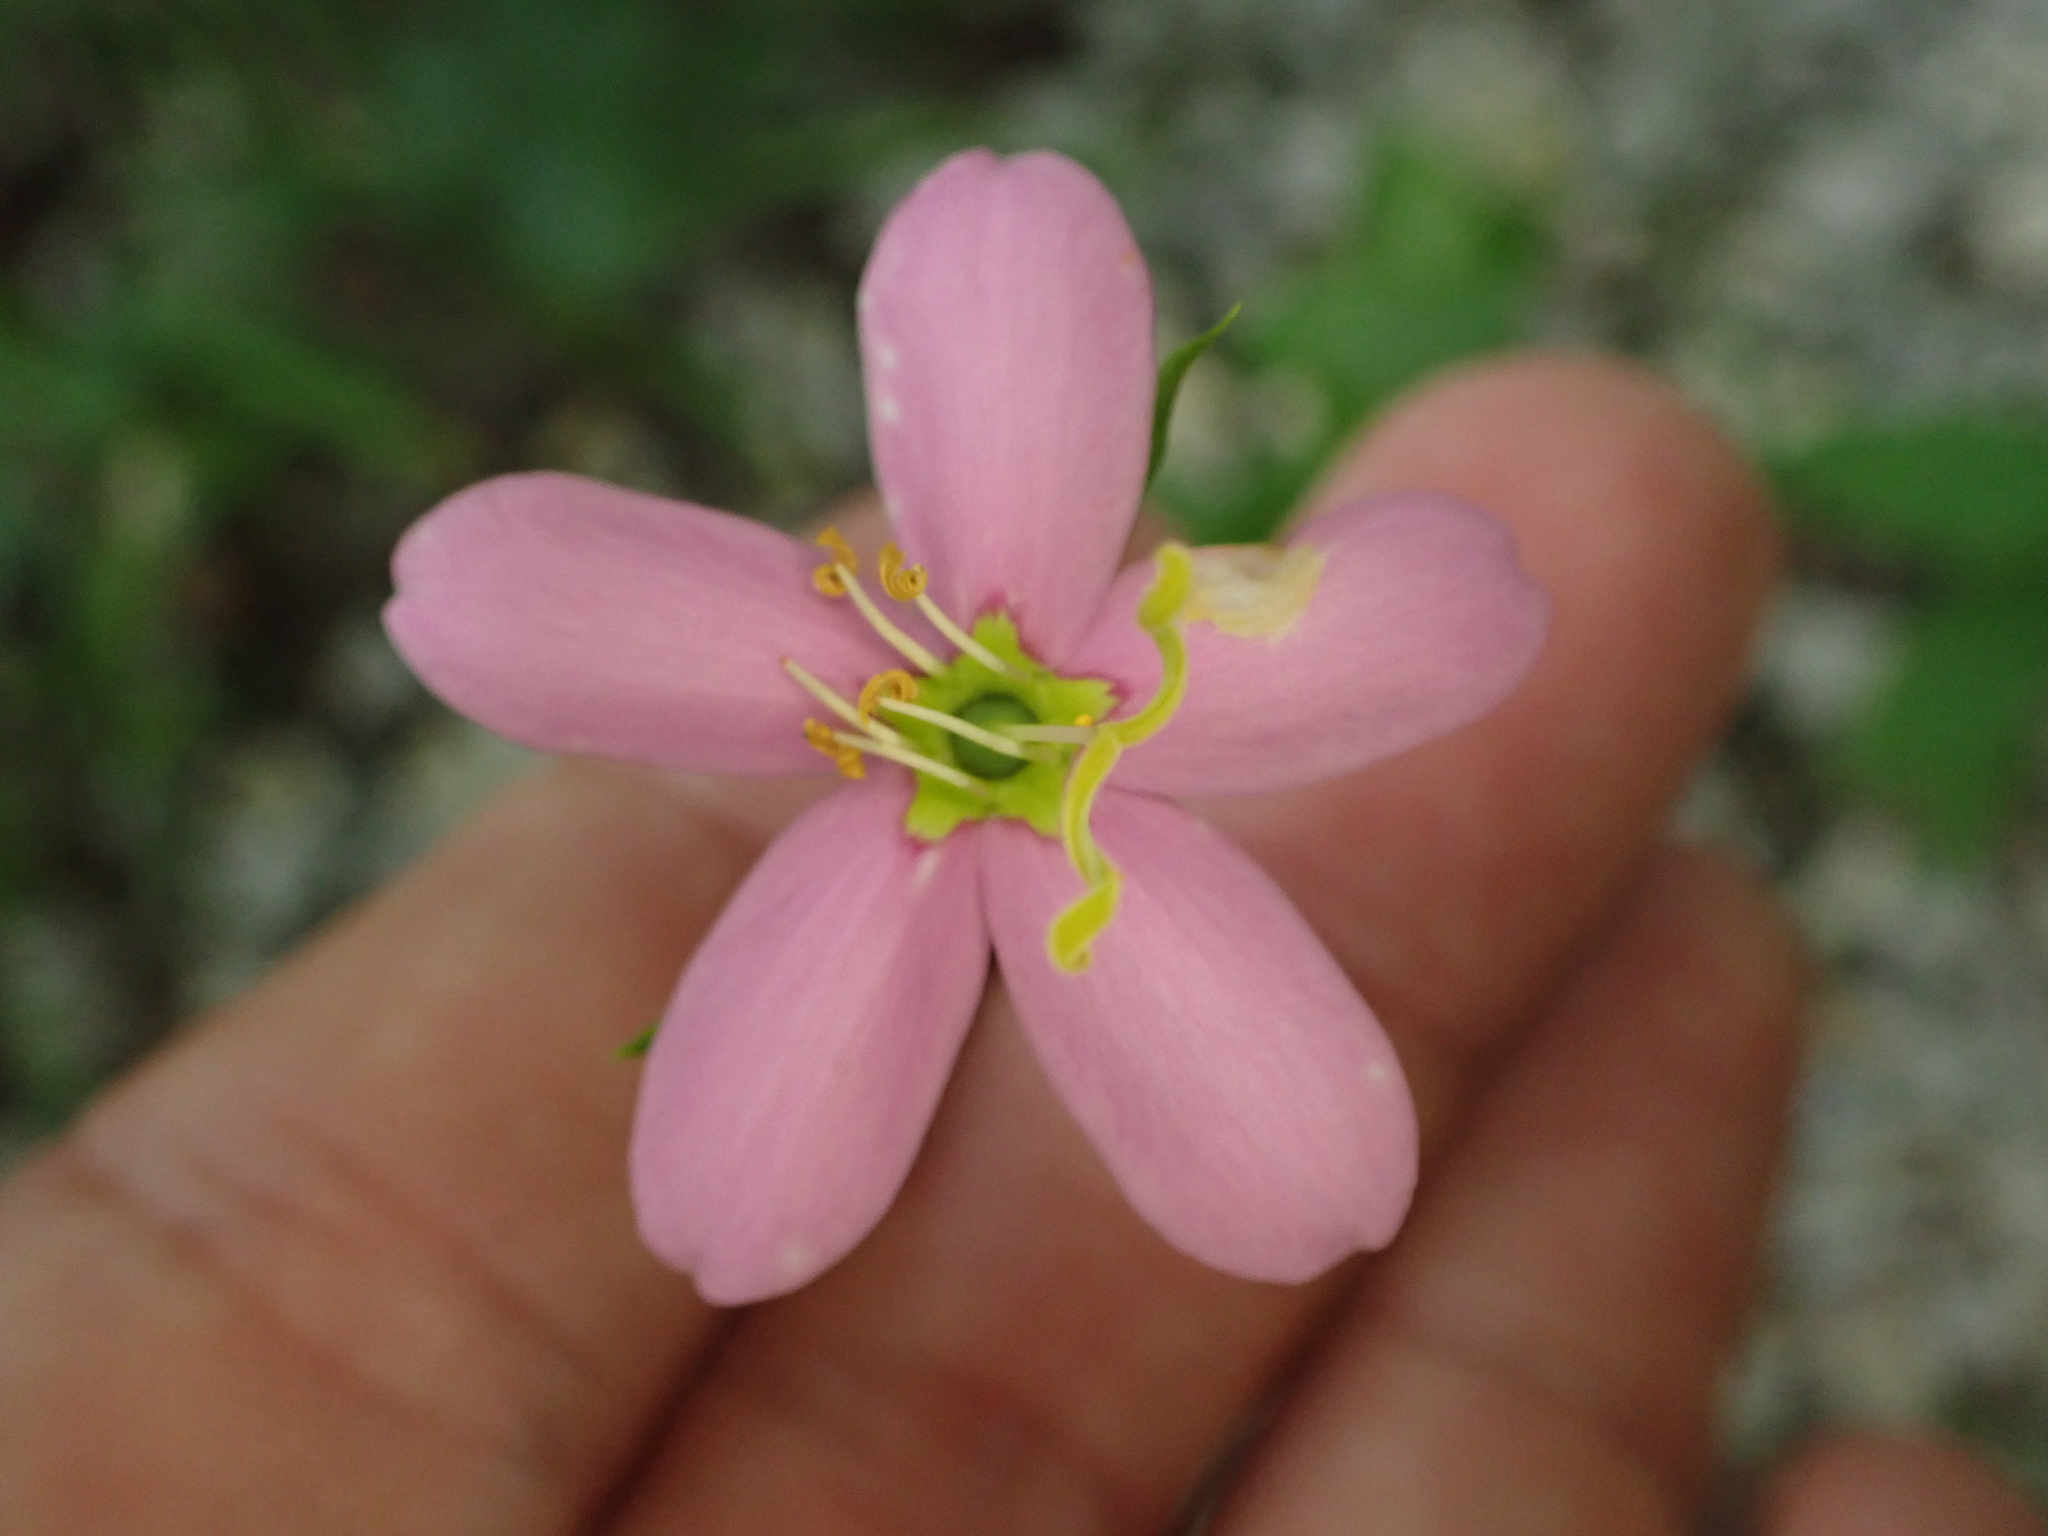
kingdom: Plantae
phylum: Tracheophyta
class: Magnoliopsida
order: Gentianales
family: Gentianaceae
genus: Sabatia
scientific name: Sabatia angularis
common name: Rose-pink
